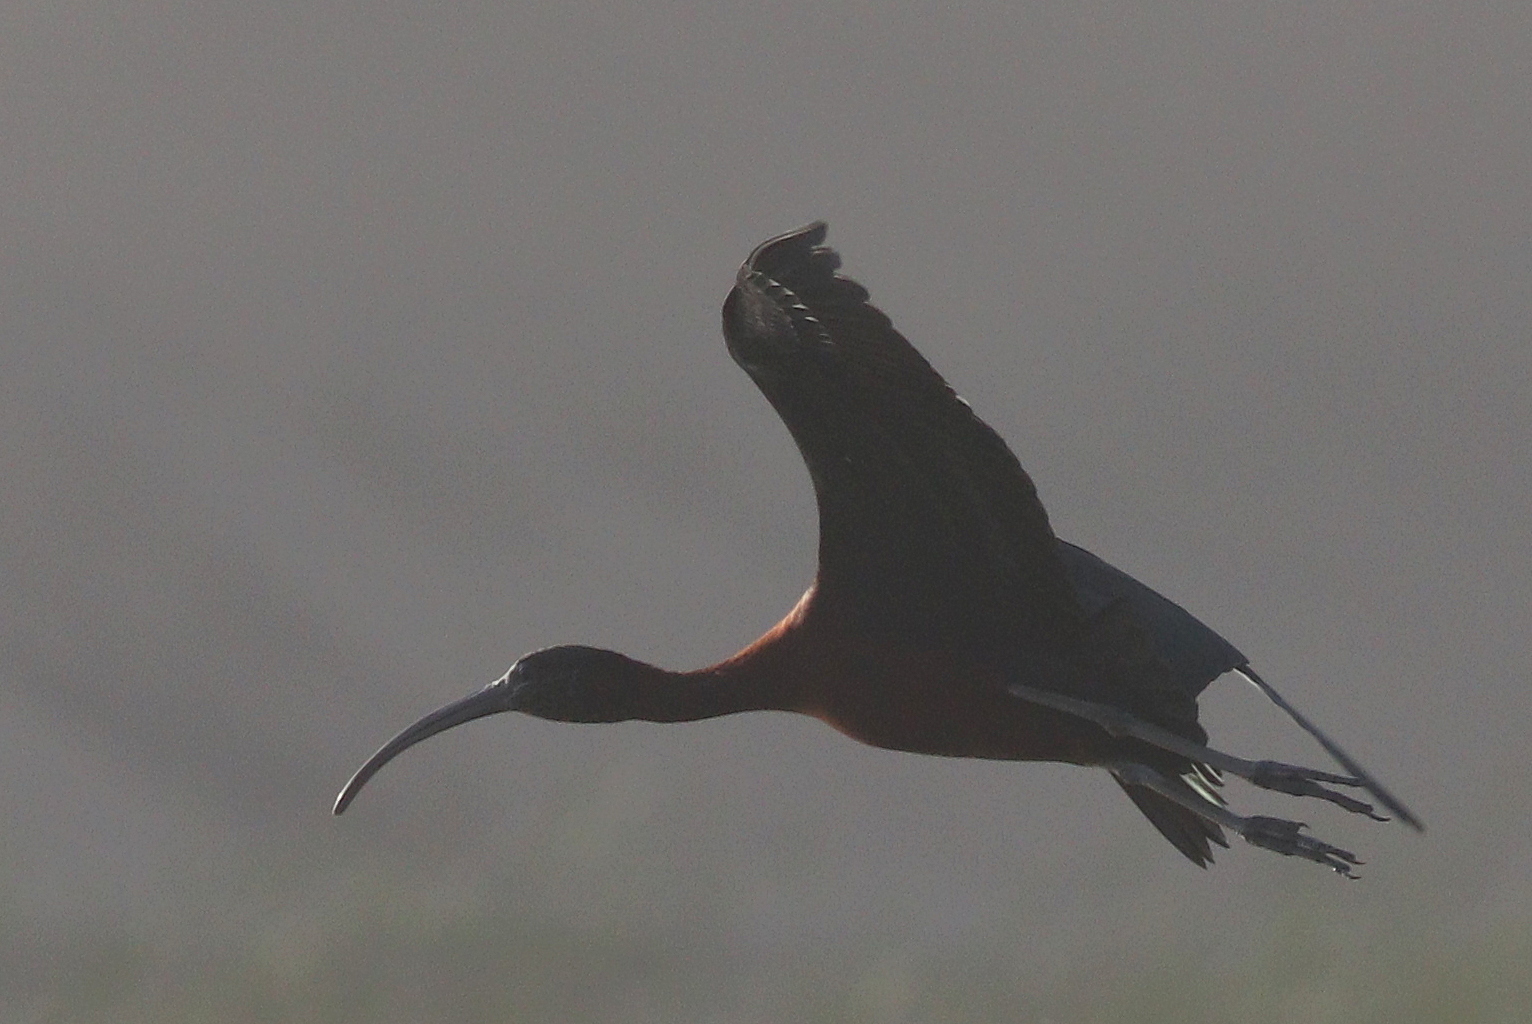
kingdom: Animalia
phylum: Chordata
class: Aves
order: Pelecaniformes
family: Threskiornithidae
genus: Plegadis
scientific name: Plegadis falcinellus
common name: Glossy ibis
